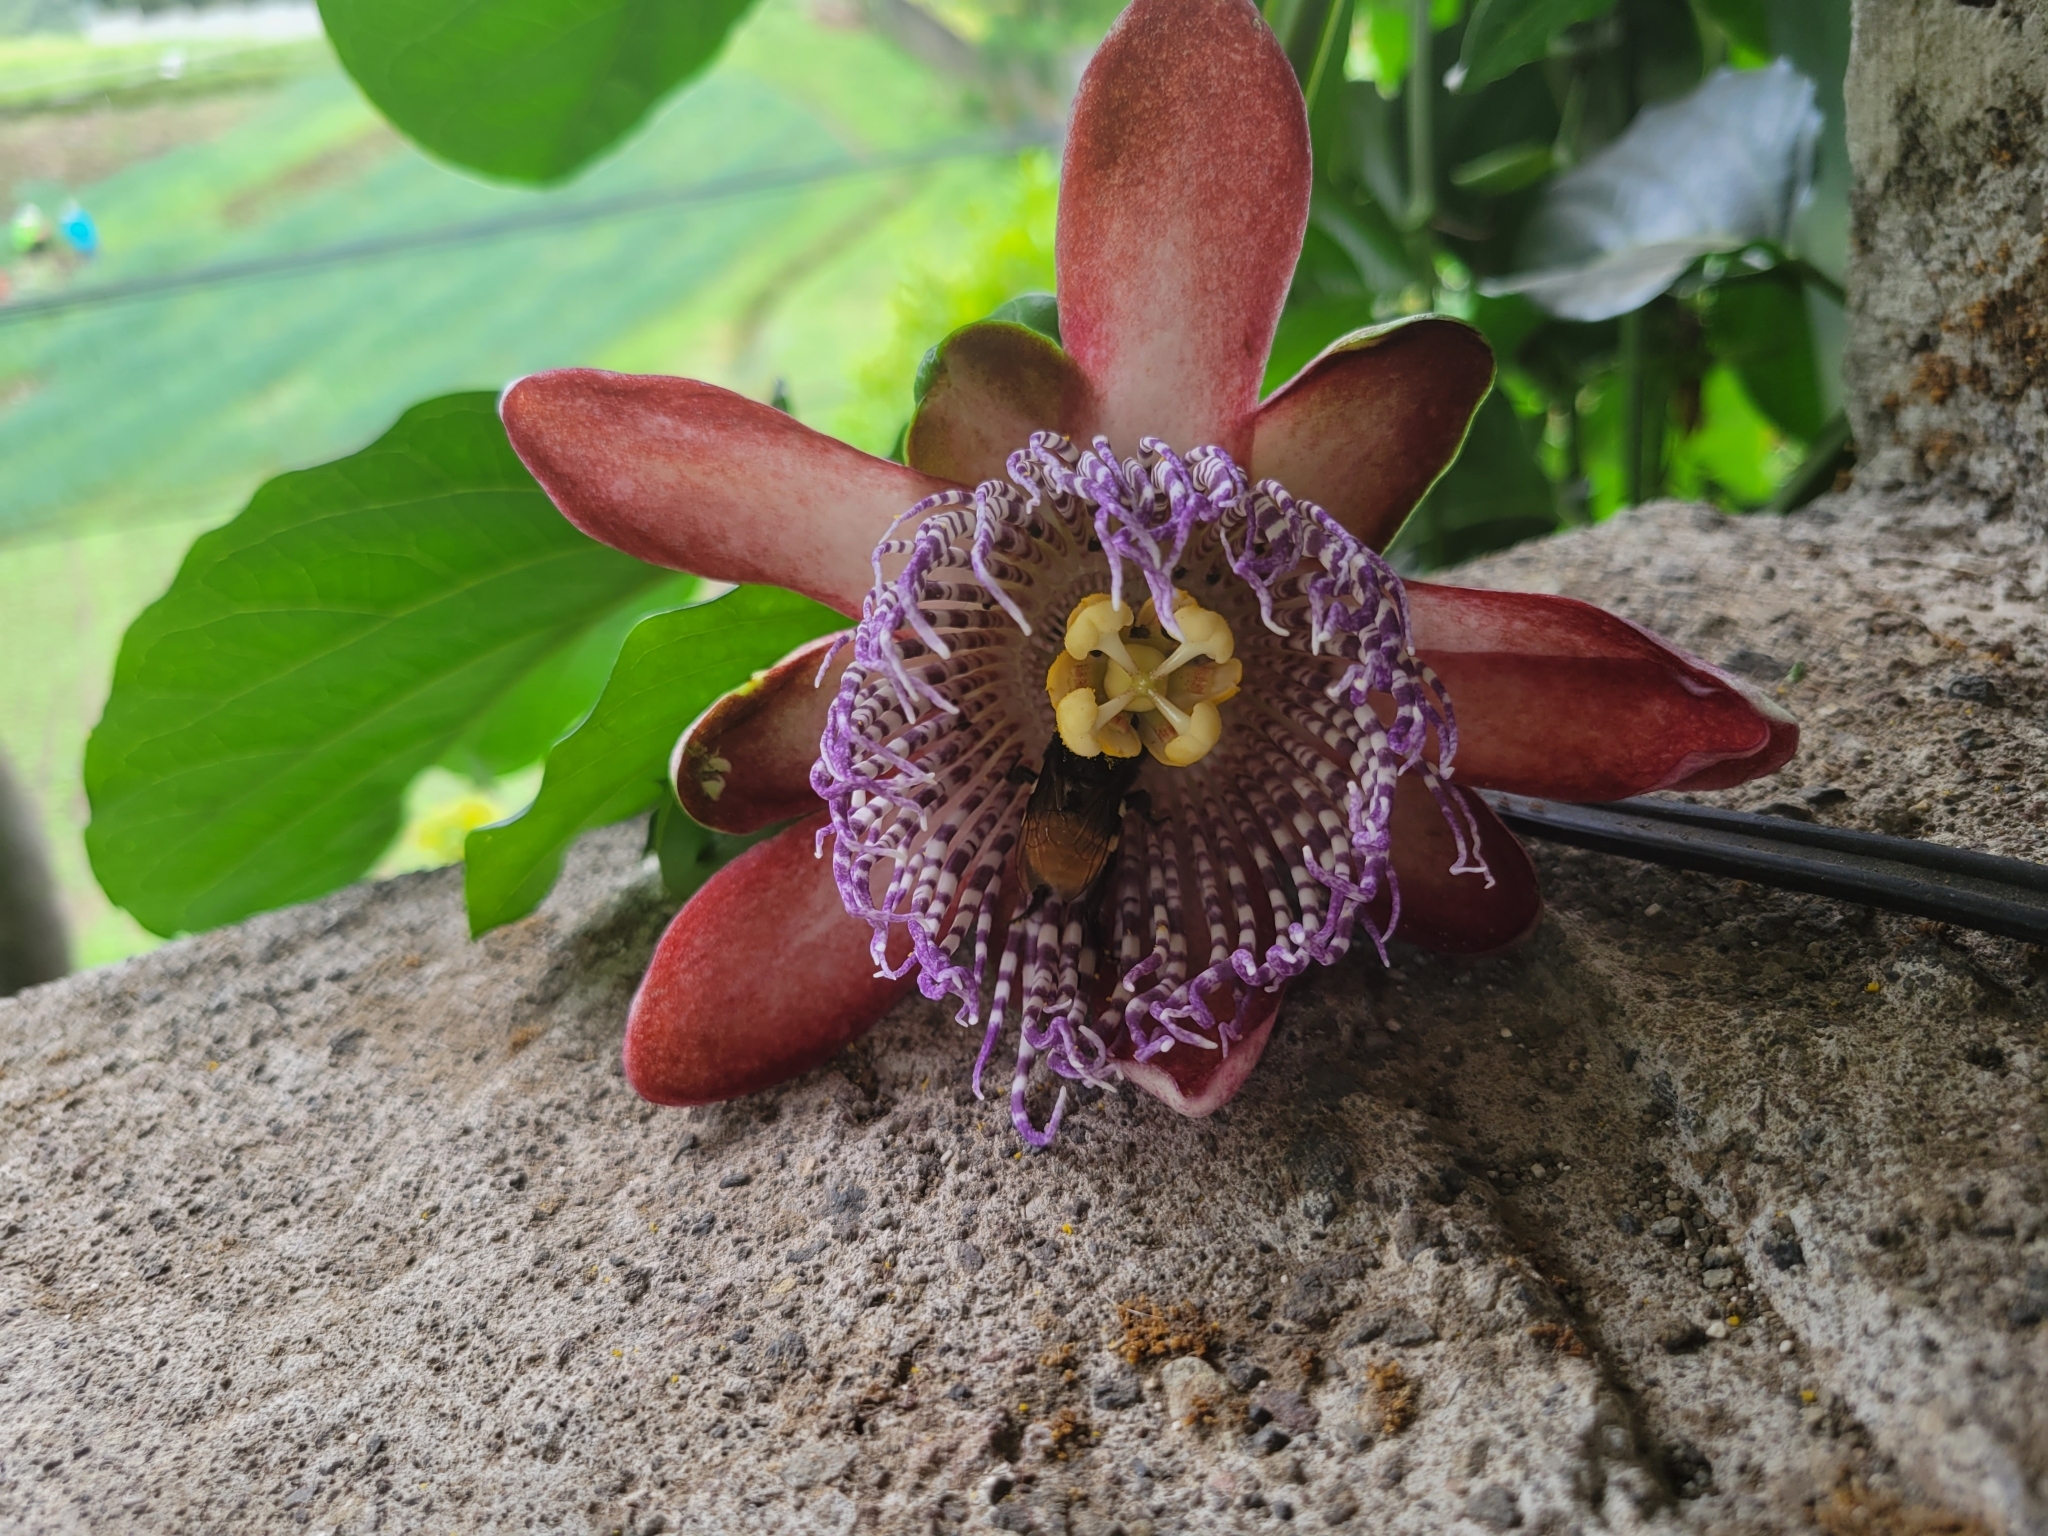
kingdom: Animalia
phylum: Arthropoda
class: Insecta
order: Hymenoptera
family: Apidae
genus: Eulaema
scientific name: Eulaema cingulata
